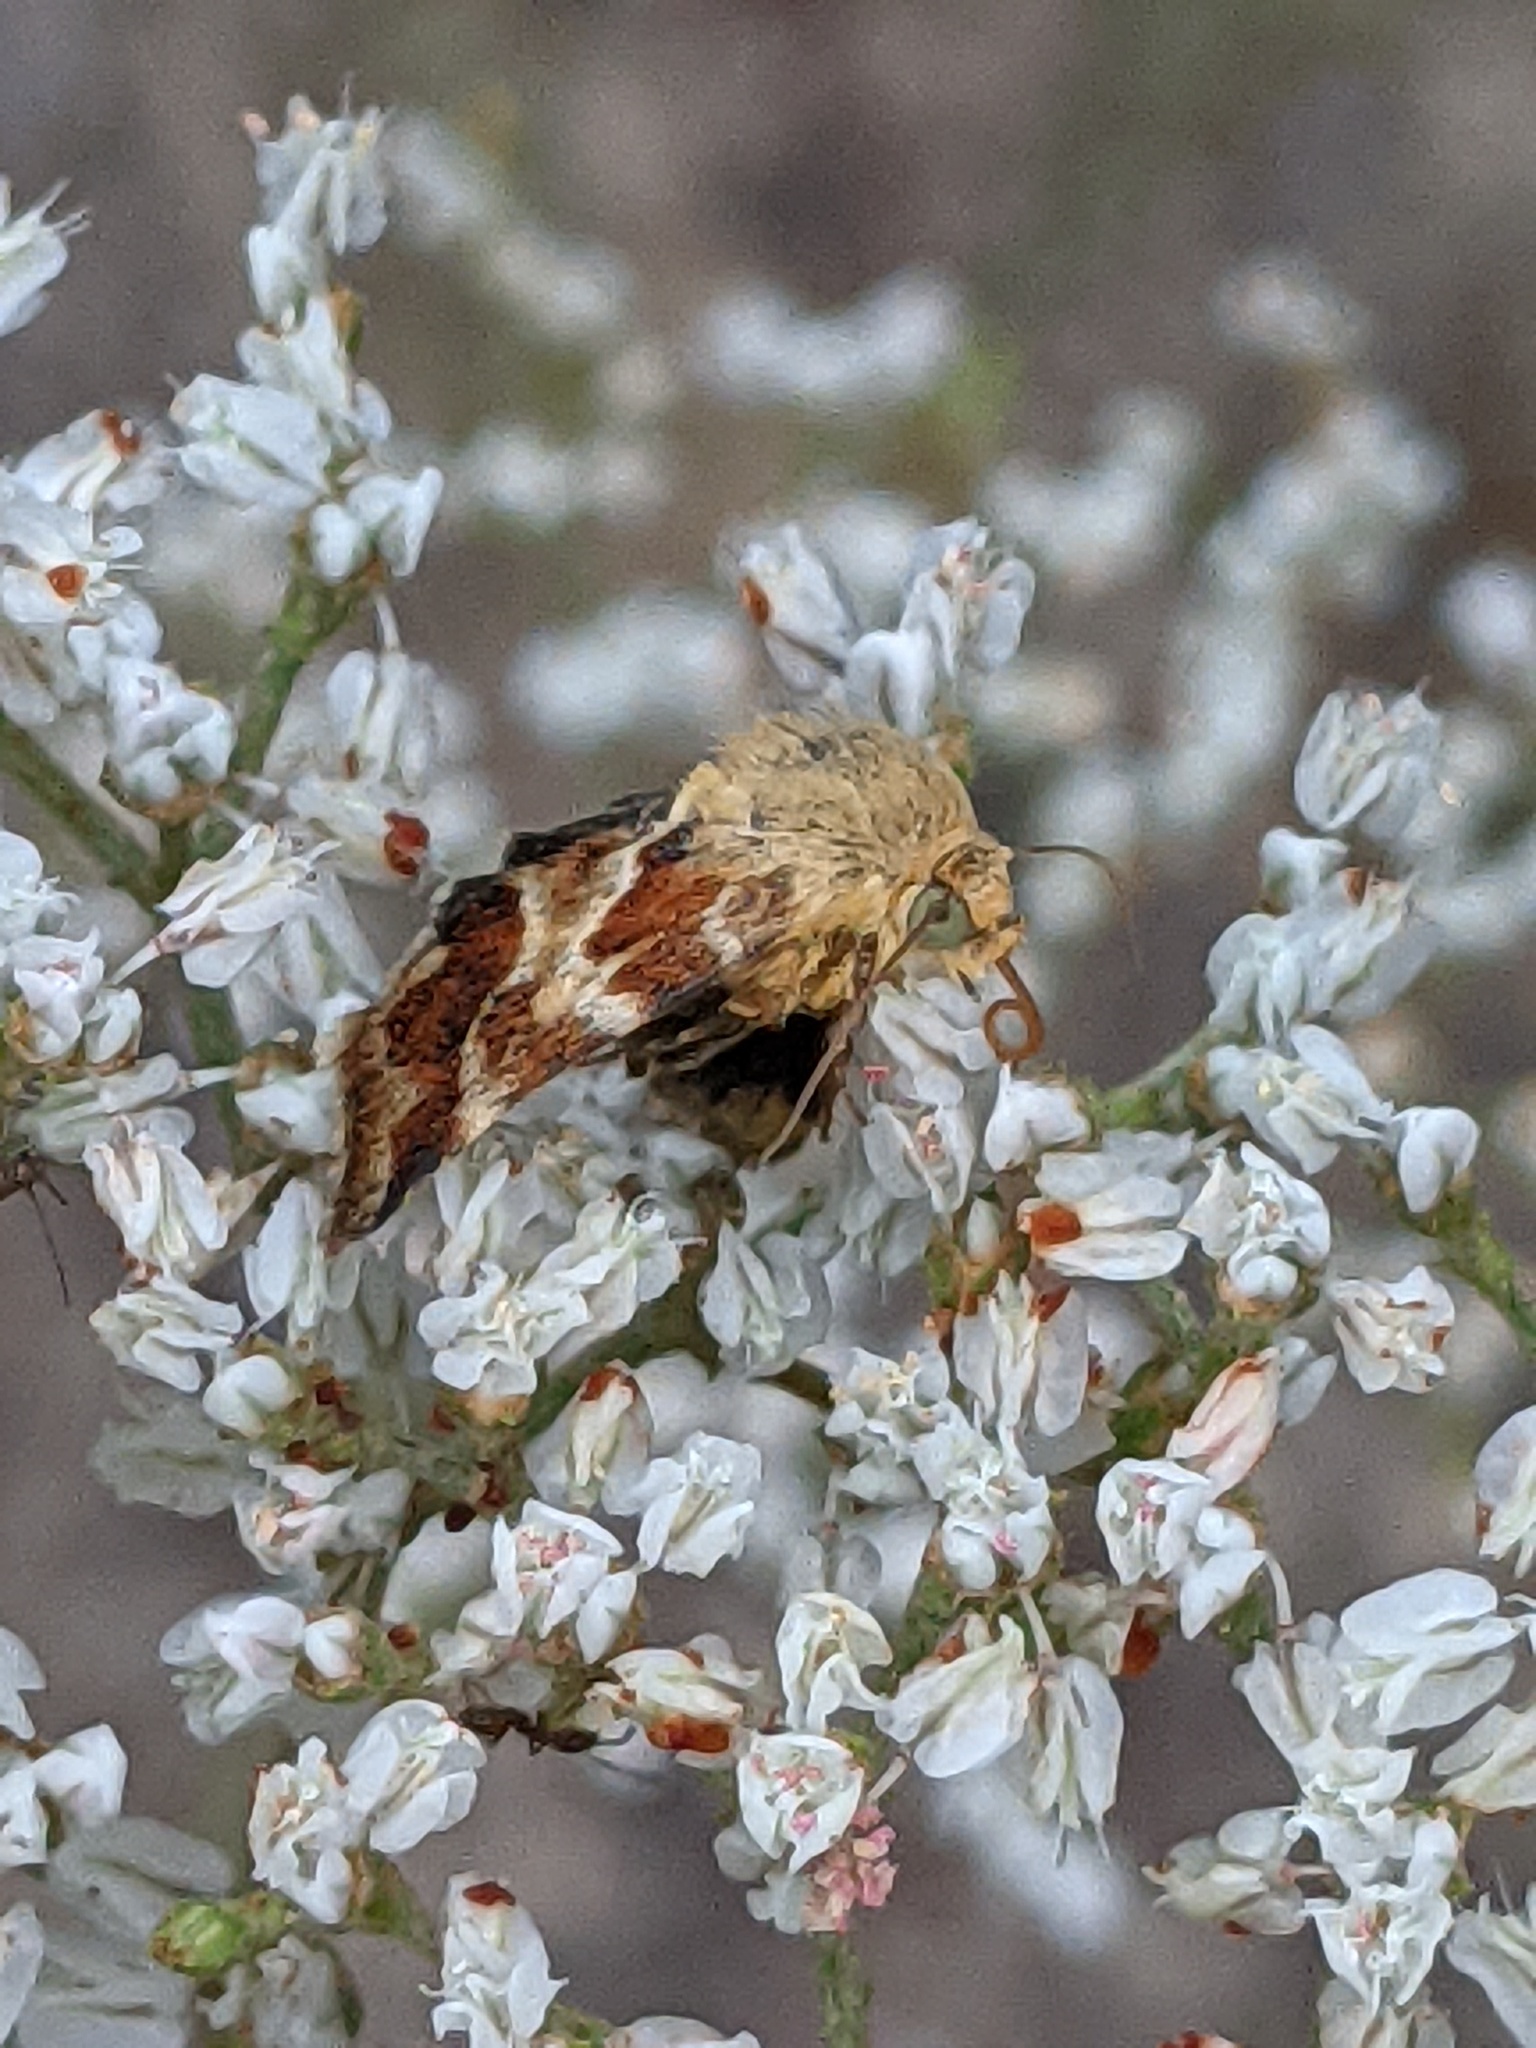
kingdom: Animalia
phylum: Arthropoda
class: Insecta
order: Lepidoptera
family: Noctuidae
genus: Schinia
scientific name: Schinia lynx
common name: Lynx flower moth
